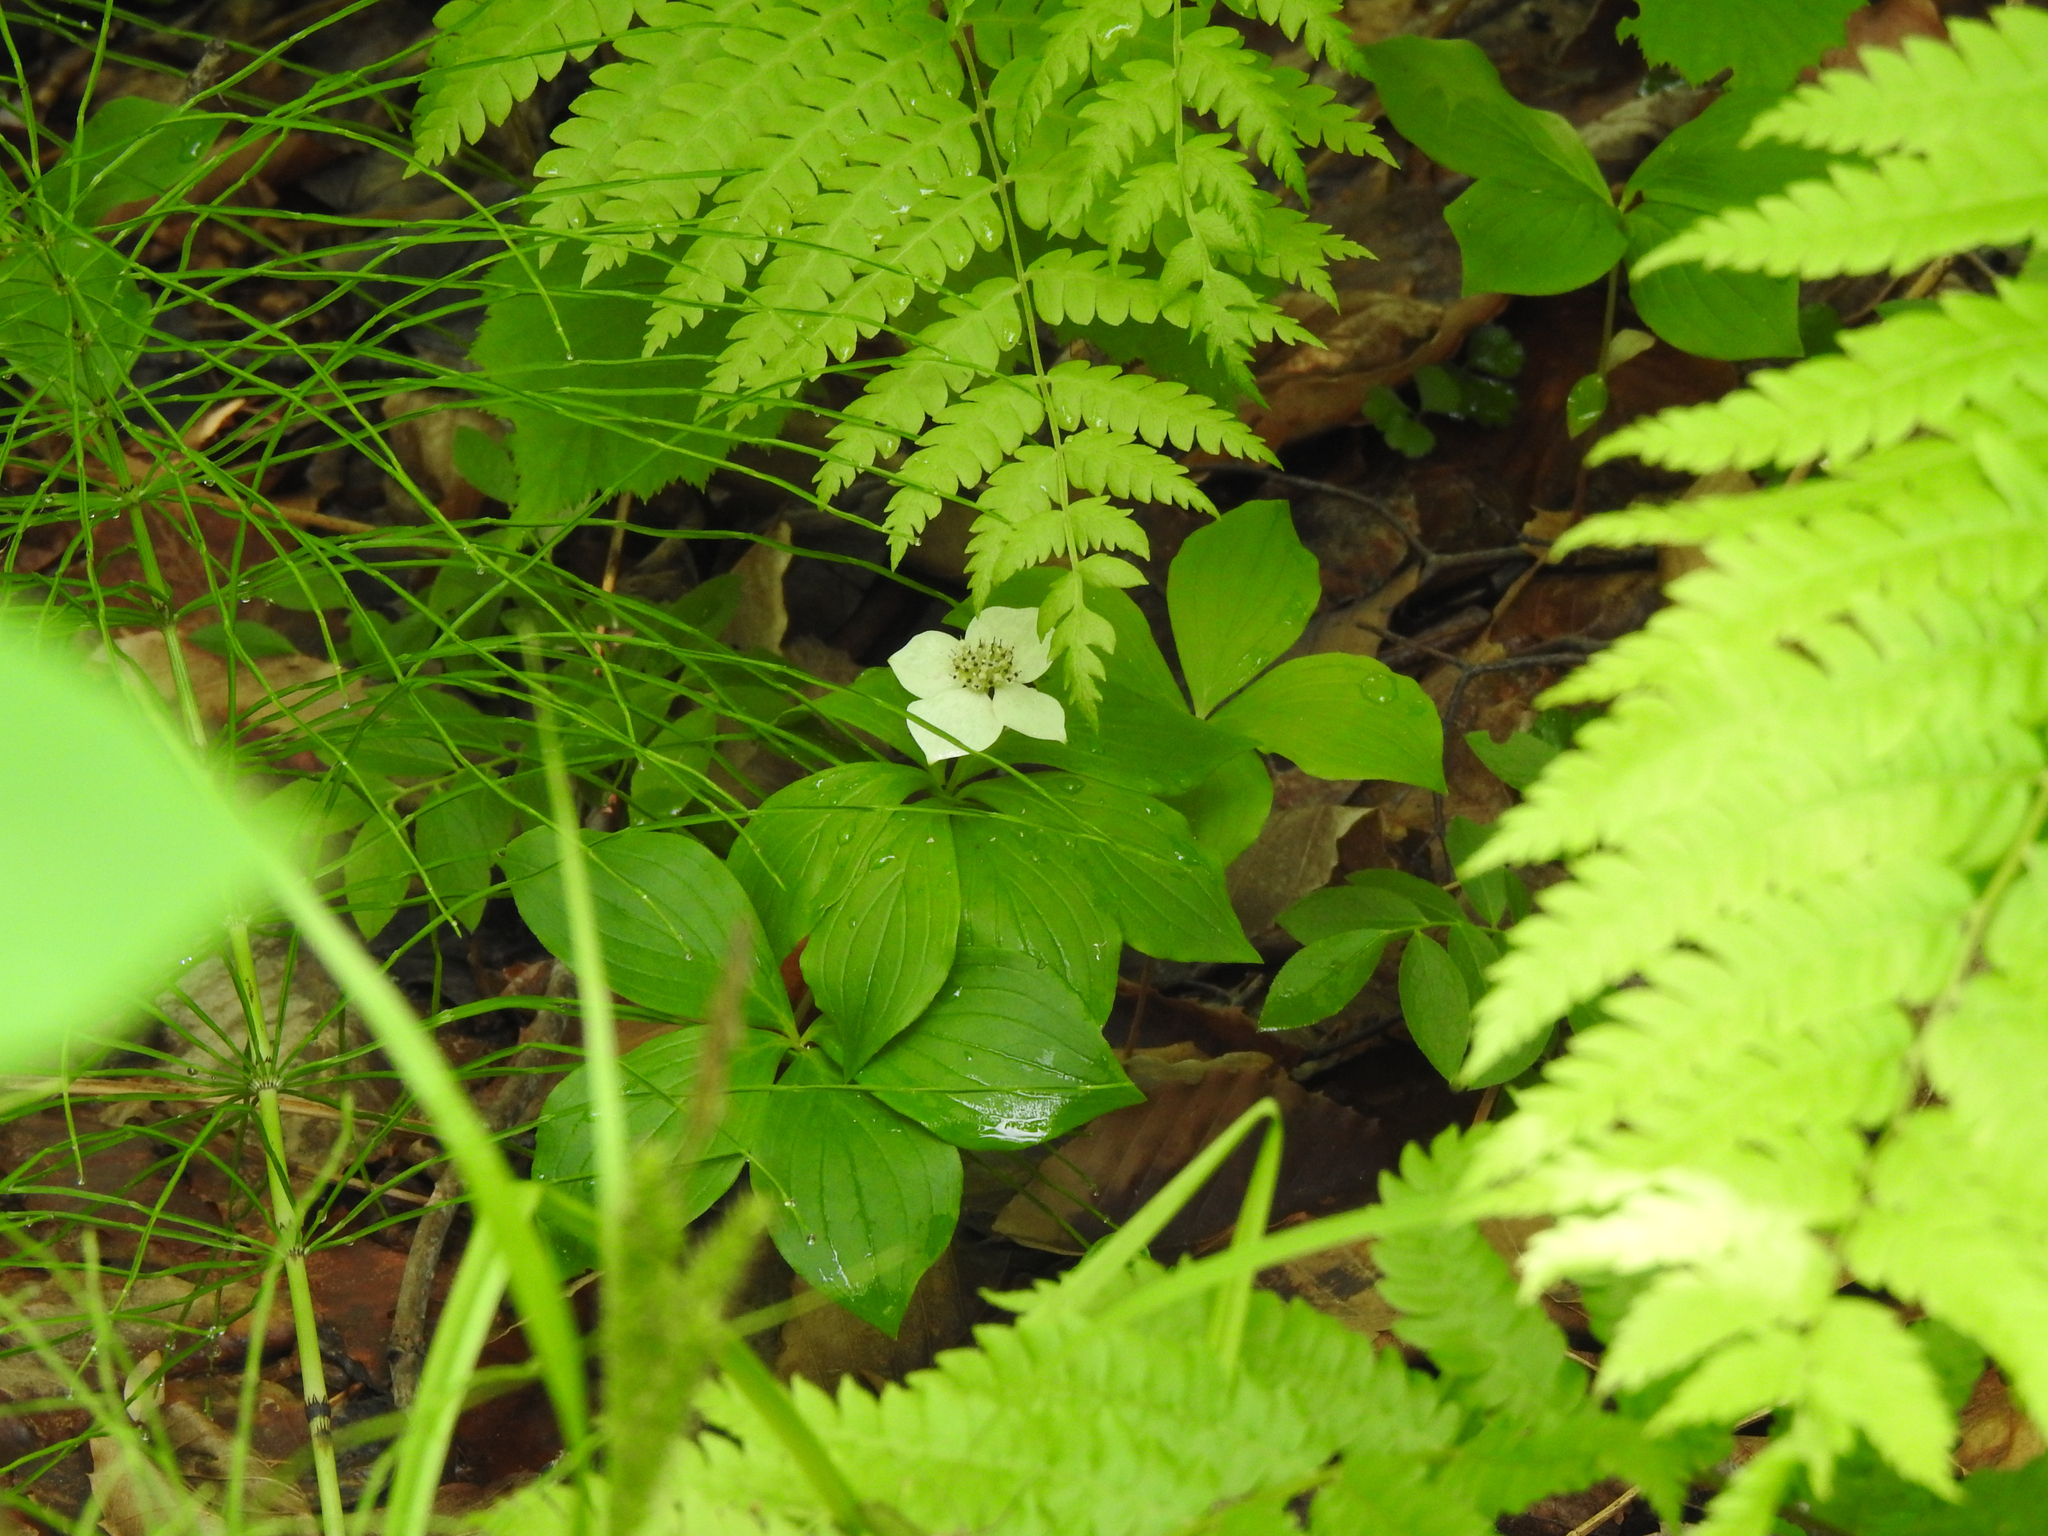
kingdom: Plantae
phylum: Tracheophyta
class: Magnoliopsida
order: Cornales
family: Cornaceae
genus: Cornus
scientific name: Cornus canadensis
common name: Creeping dogwood
